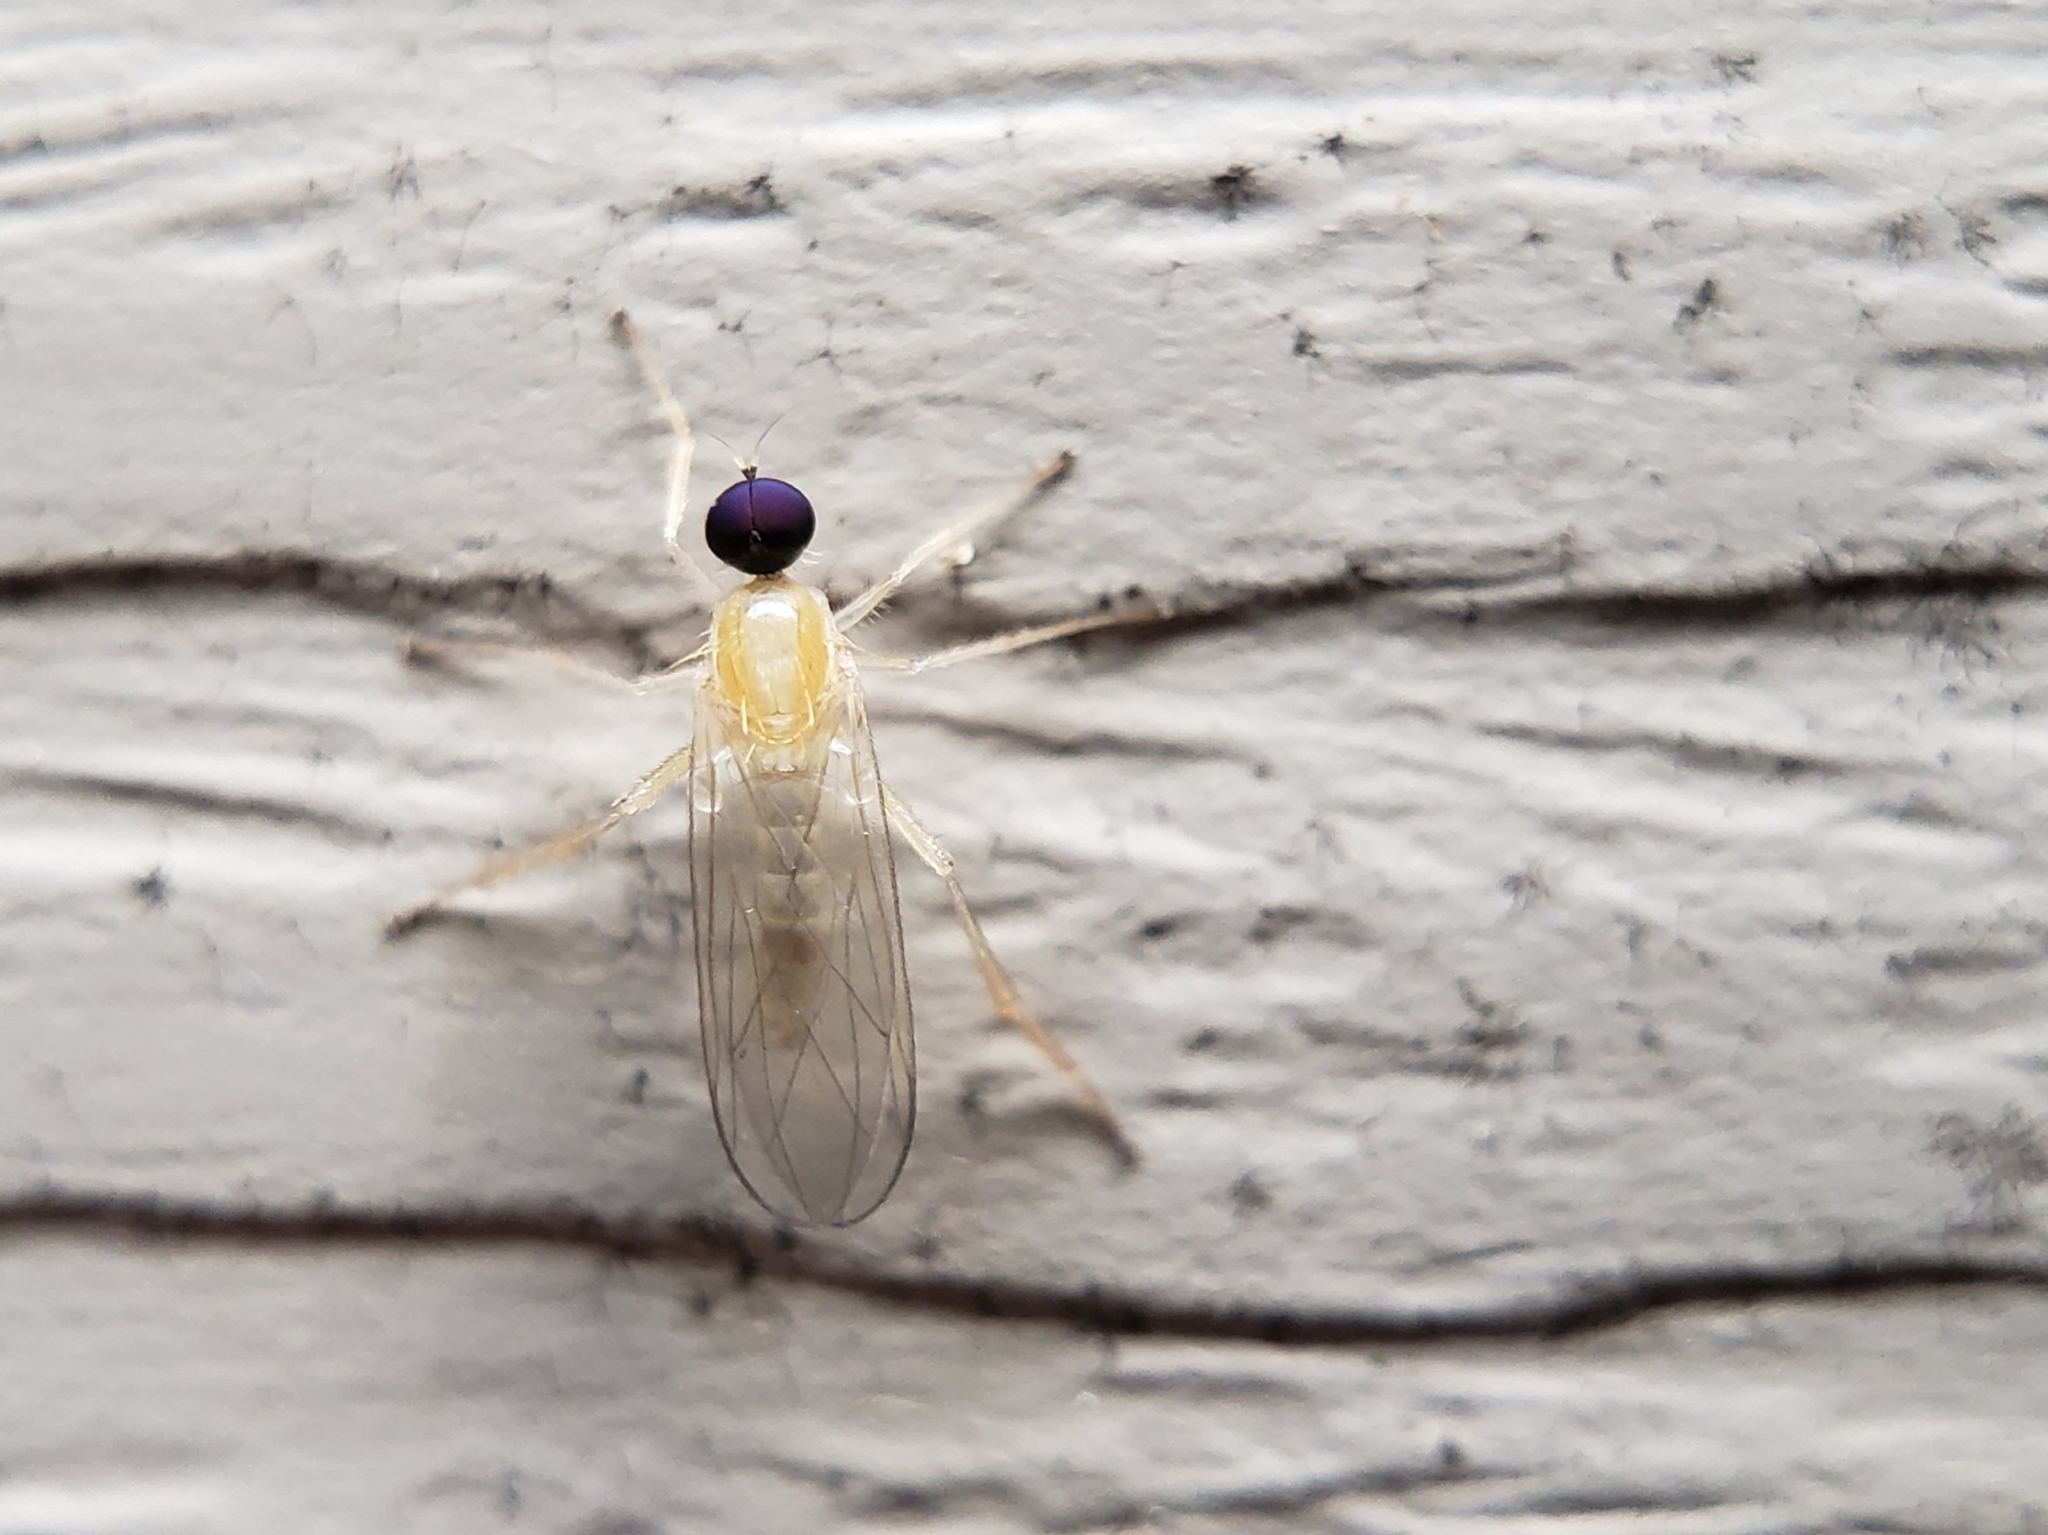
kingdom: Animalia
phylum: Arthropoda
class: Insecta
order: Diptera
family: Hybotidae
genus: Leptopeza
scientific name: Leptopeza compta
